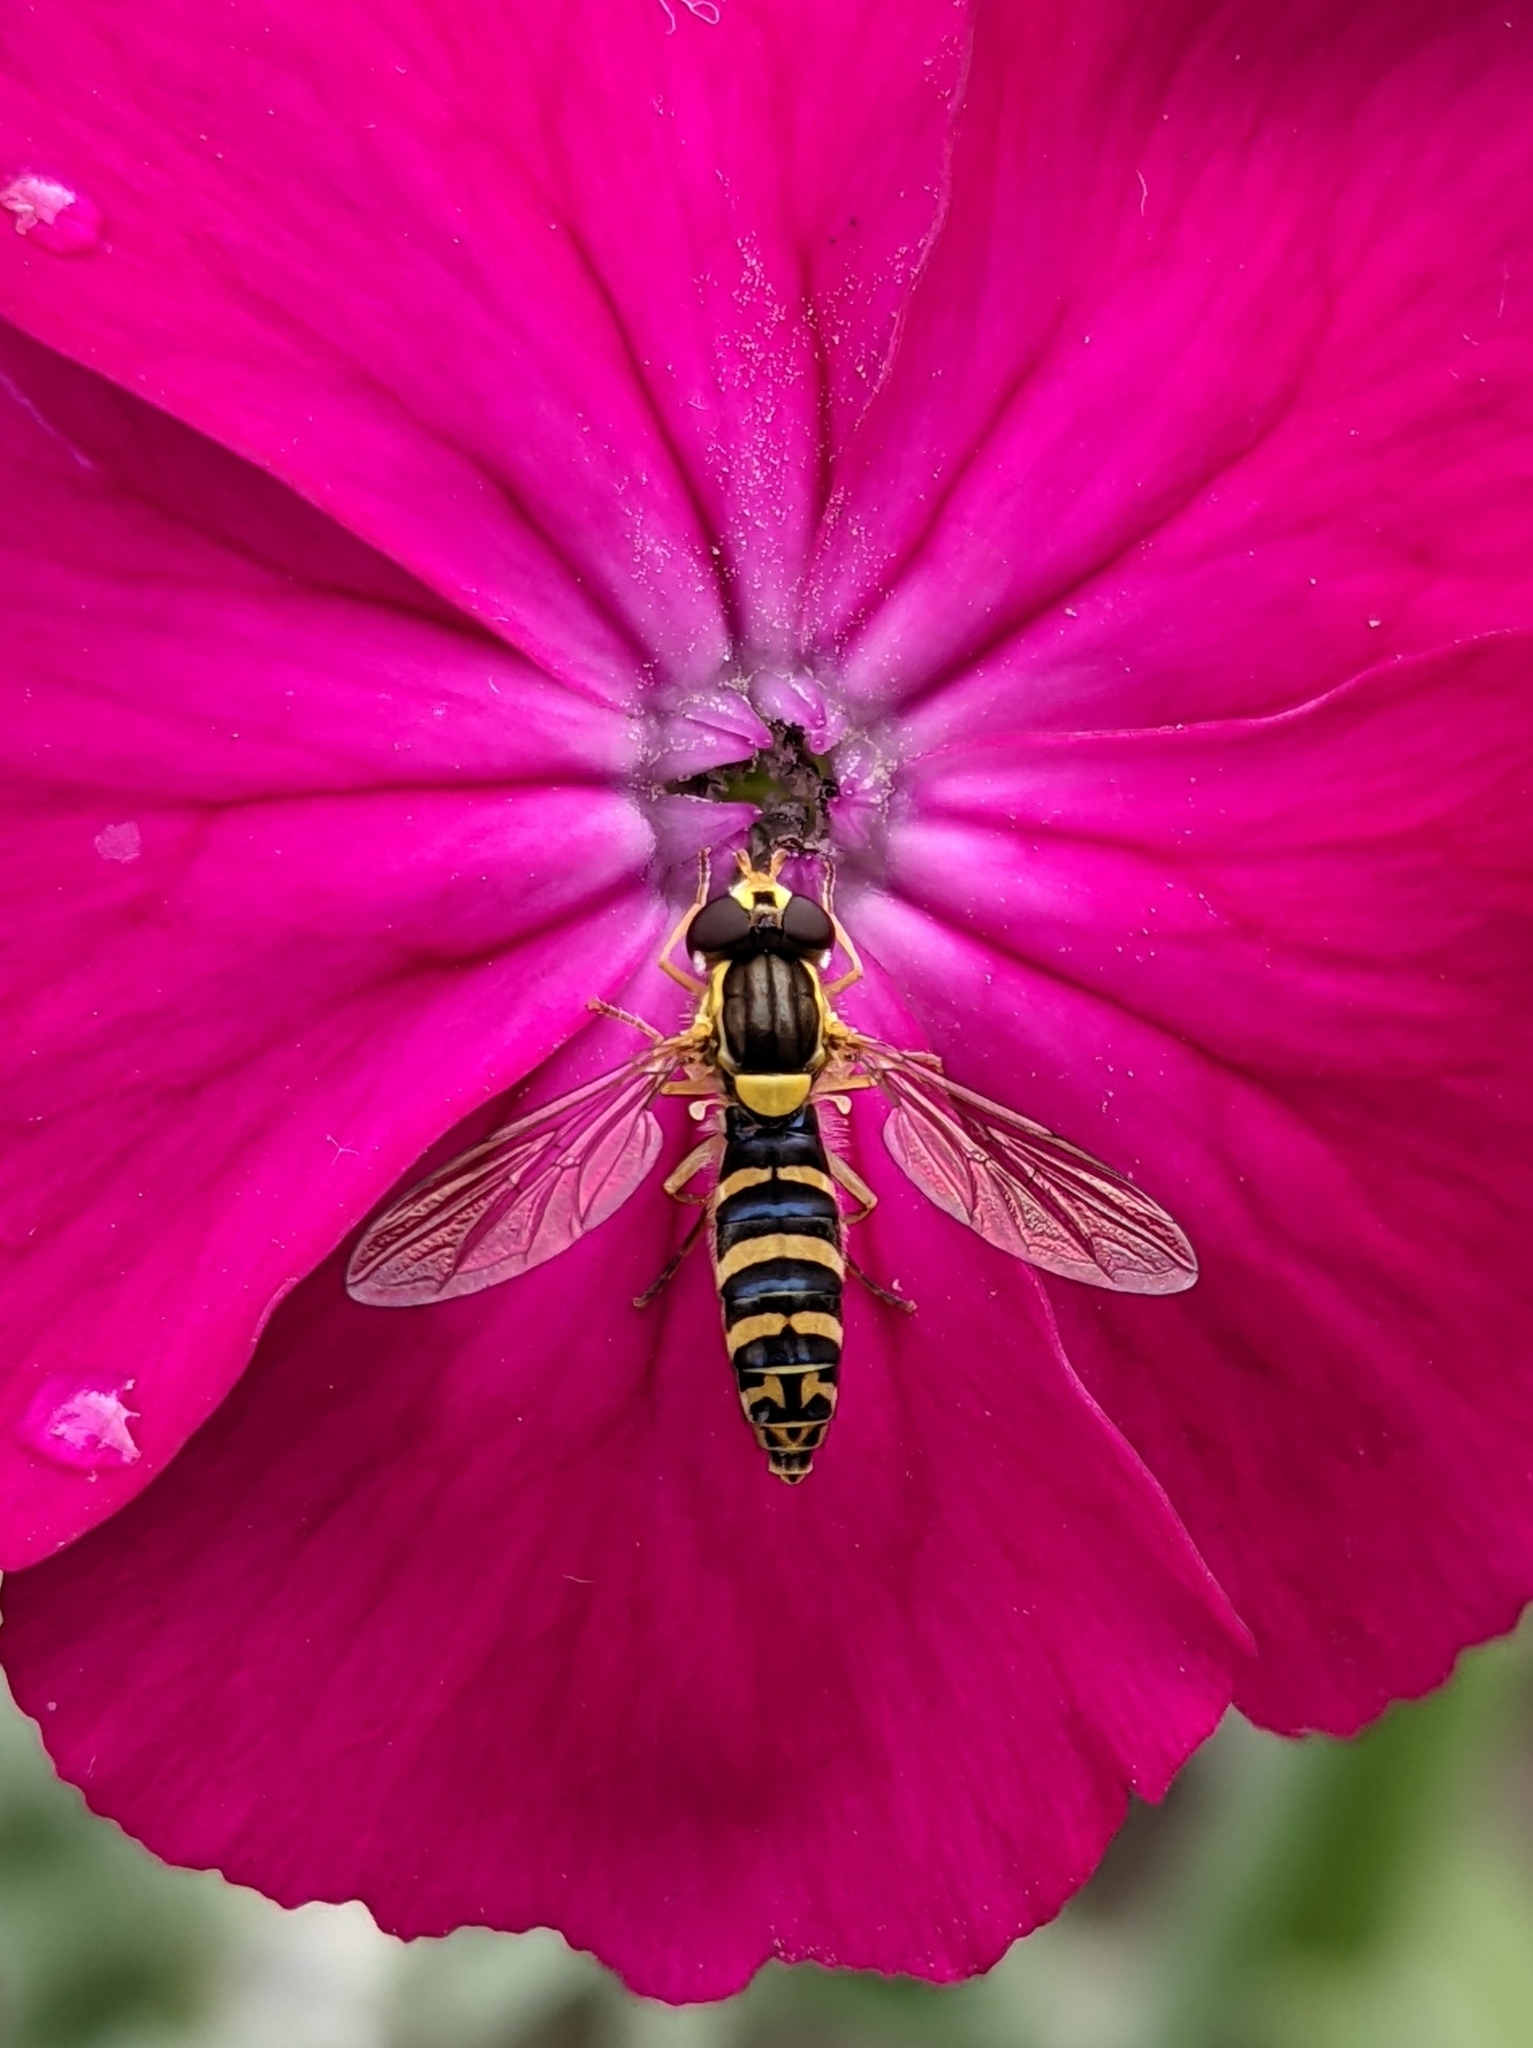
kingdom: Animalia
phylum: Arthropoda
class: Insecta
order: Diptera
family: Syrphidae
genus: Sphaerophoria
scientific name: Sphaerophoria
